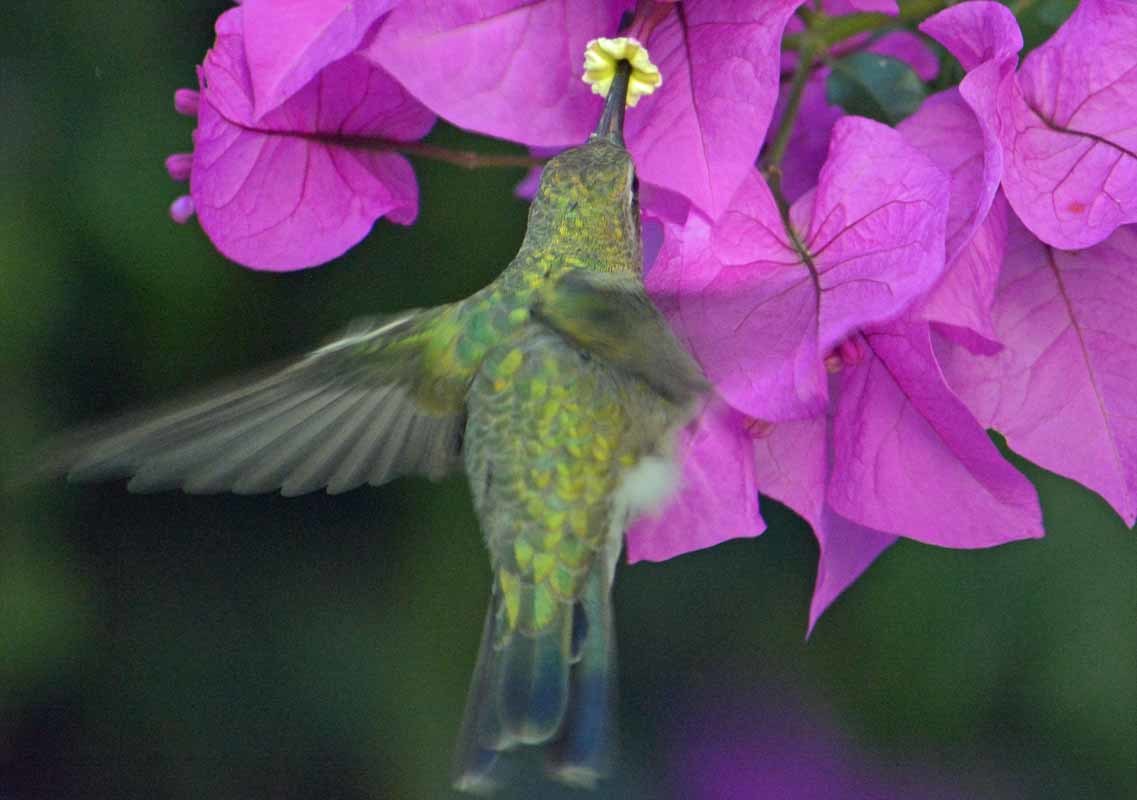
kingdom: Animalia
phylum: Chordata
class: Aves
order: Apodiformes
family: Trochilidae
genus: Cynanthus
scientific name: Cynanthus latirostris
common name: Broad-billed hummingbird
